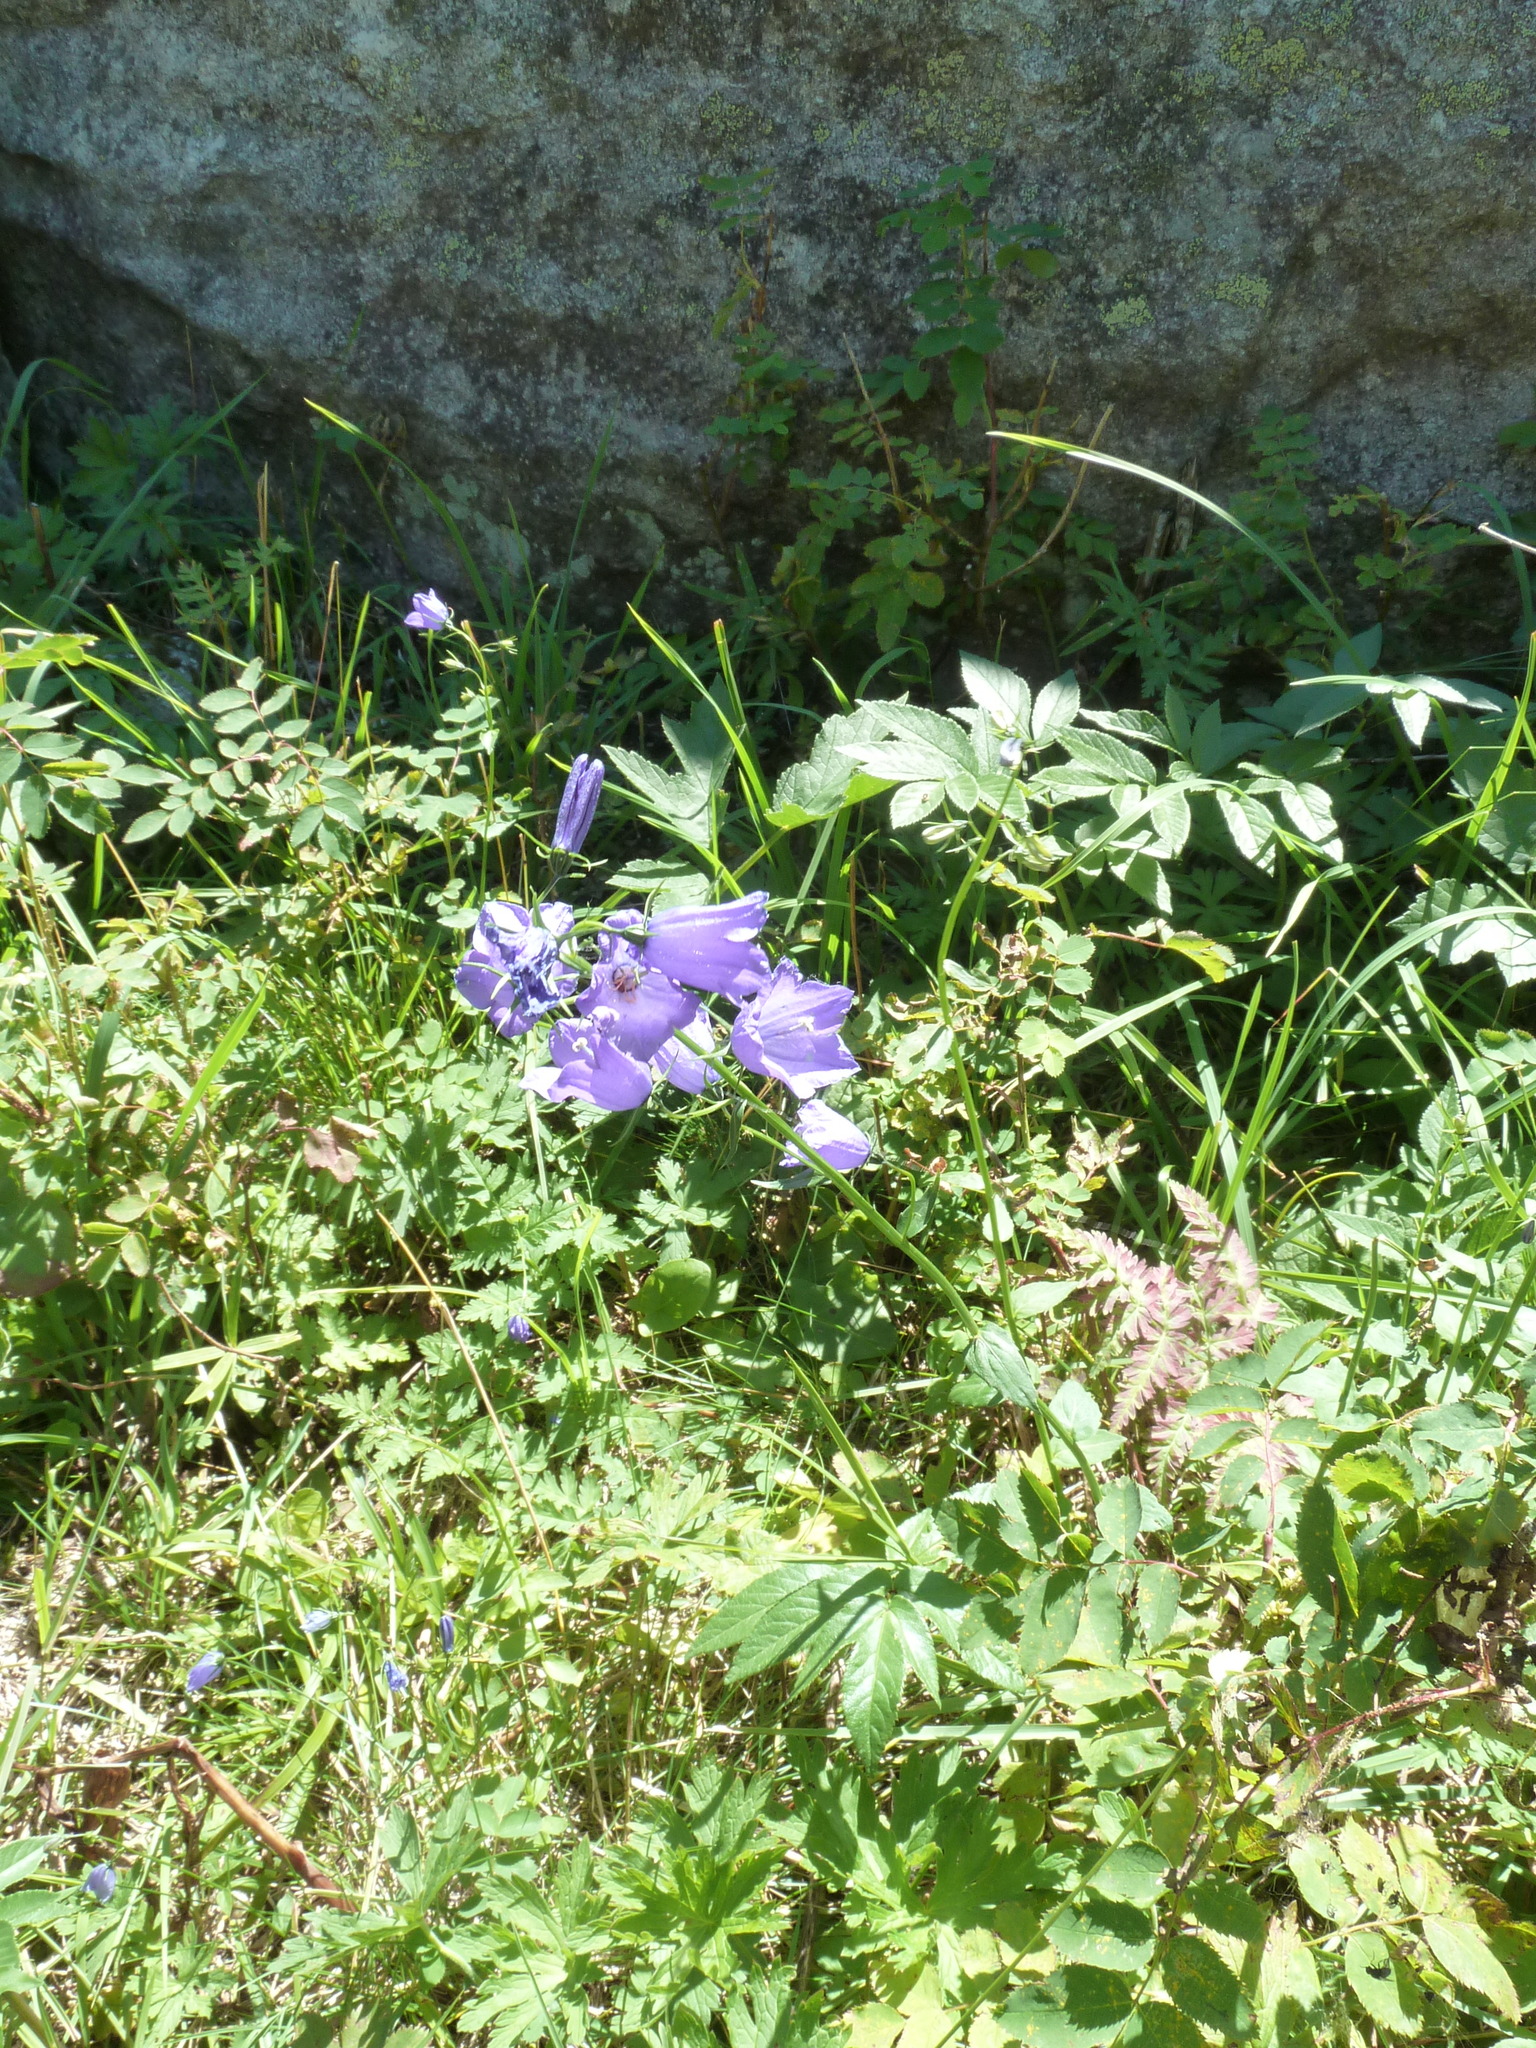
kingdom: Plantae
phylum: Tracheophyta
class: Magnoliopsida
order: Asterales
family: Campanulaceae
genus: Campanula
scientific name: Campanula rhomboidalis
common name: Broad-leaved harebell
